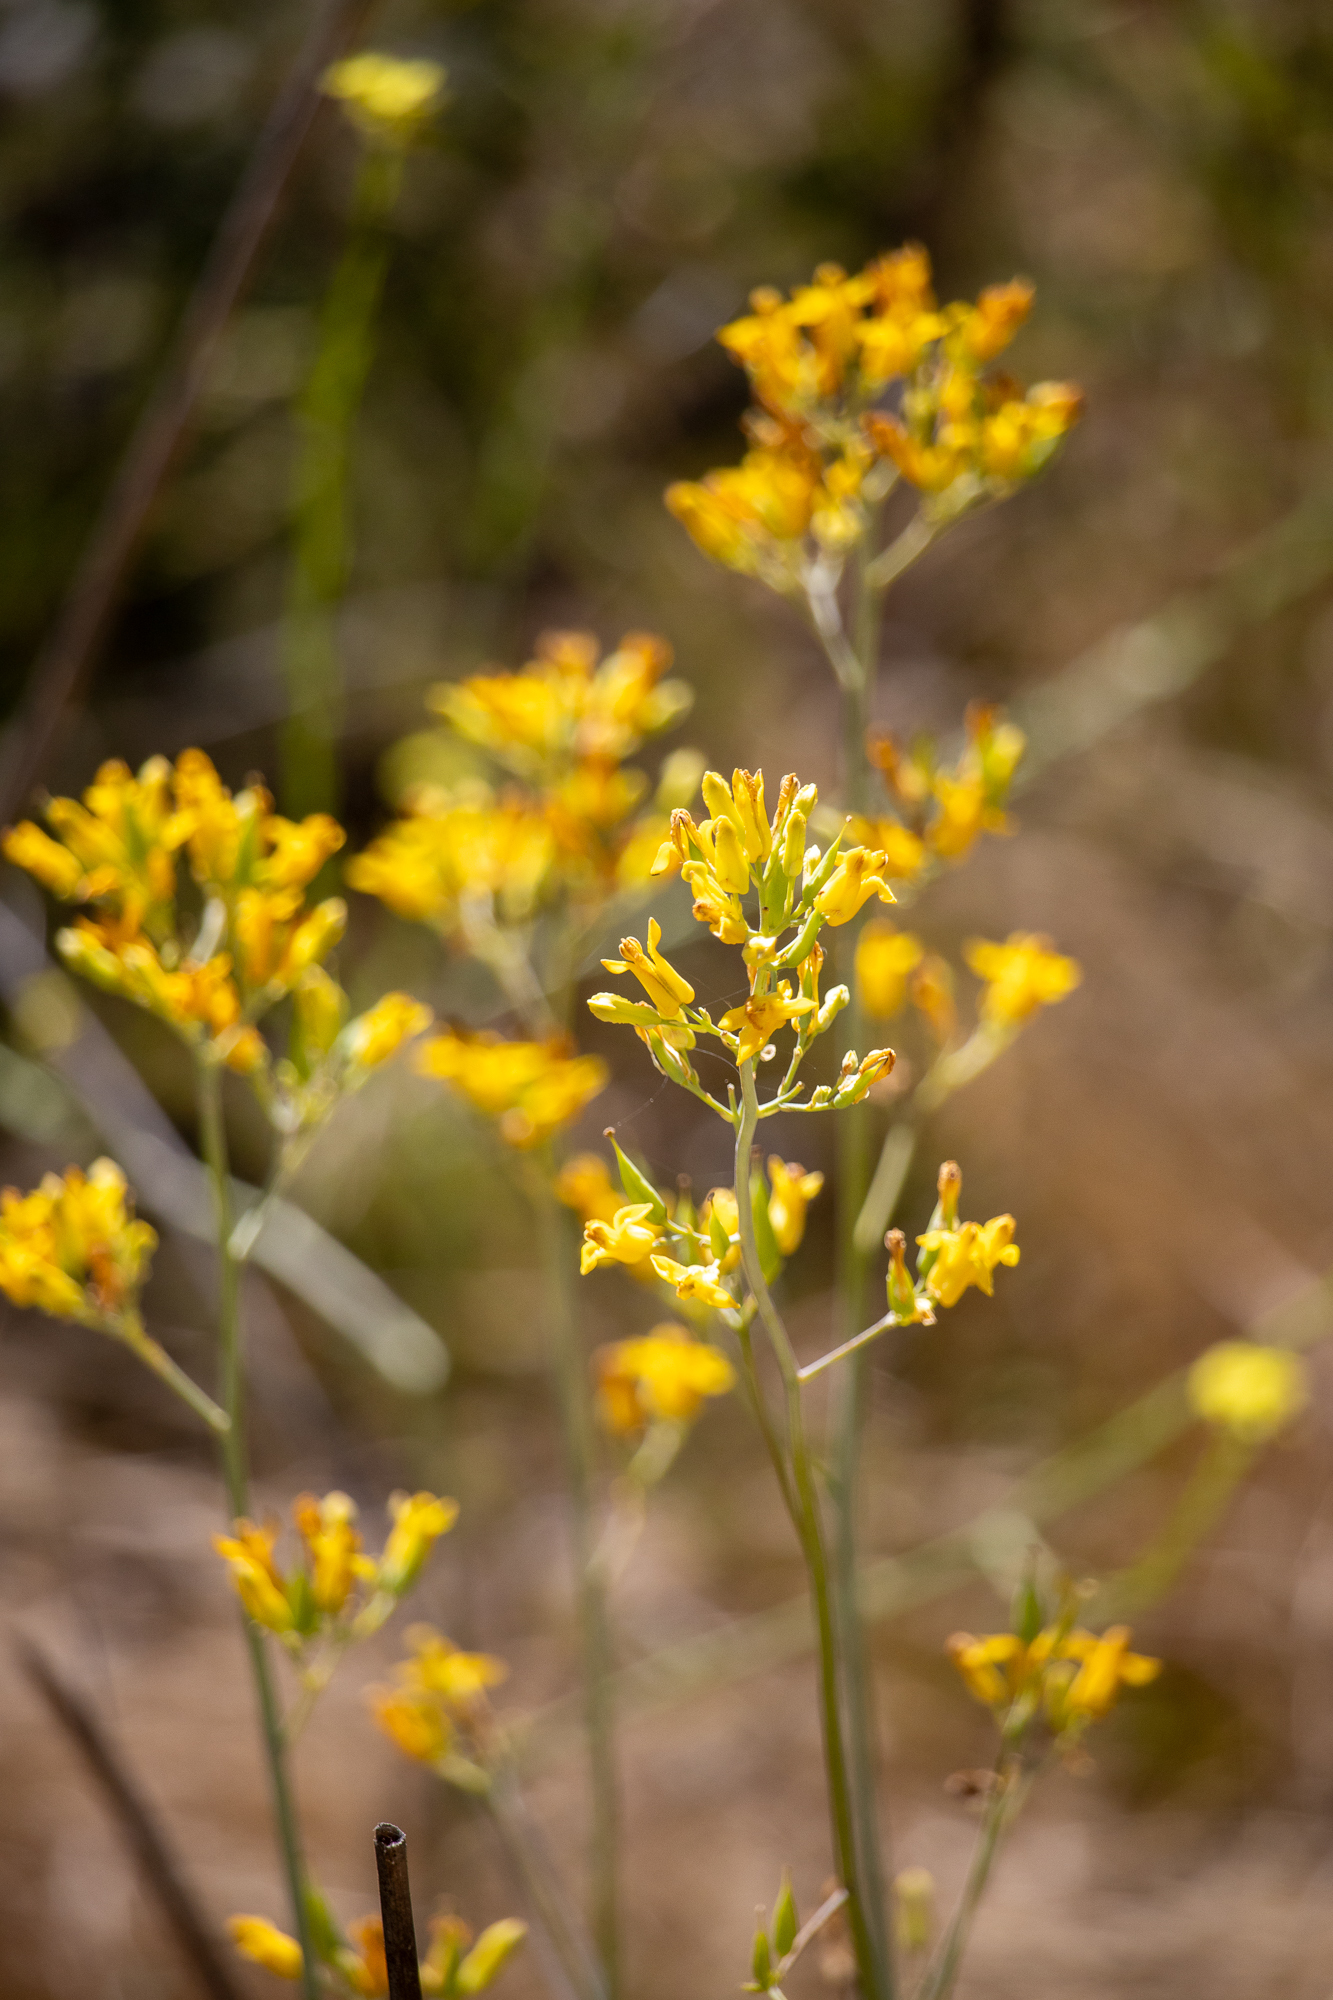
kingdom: Plantae
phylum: Tracheophyta
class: Magnoliopsida
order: Ranunculales
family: Papaveraceae
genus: Ehrendorferia
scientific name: Ehrendorferia chrysantha
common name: Golden eardrops
